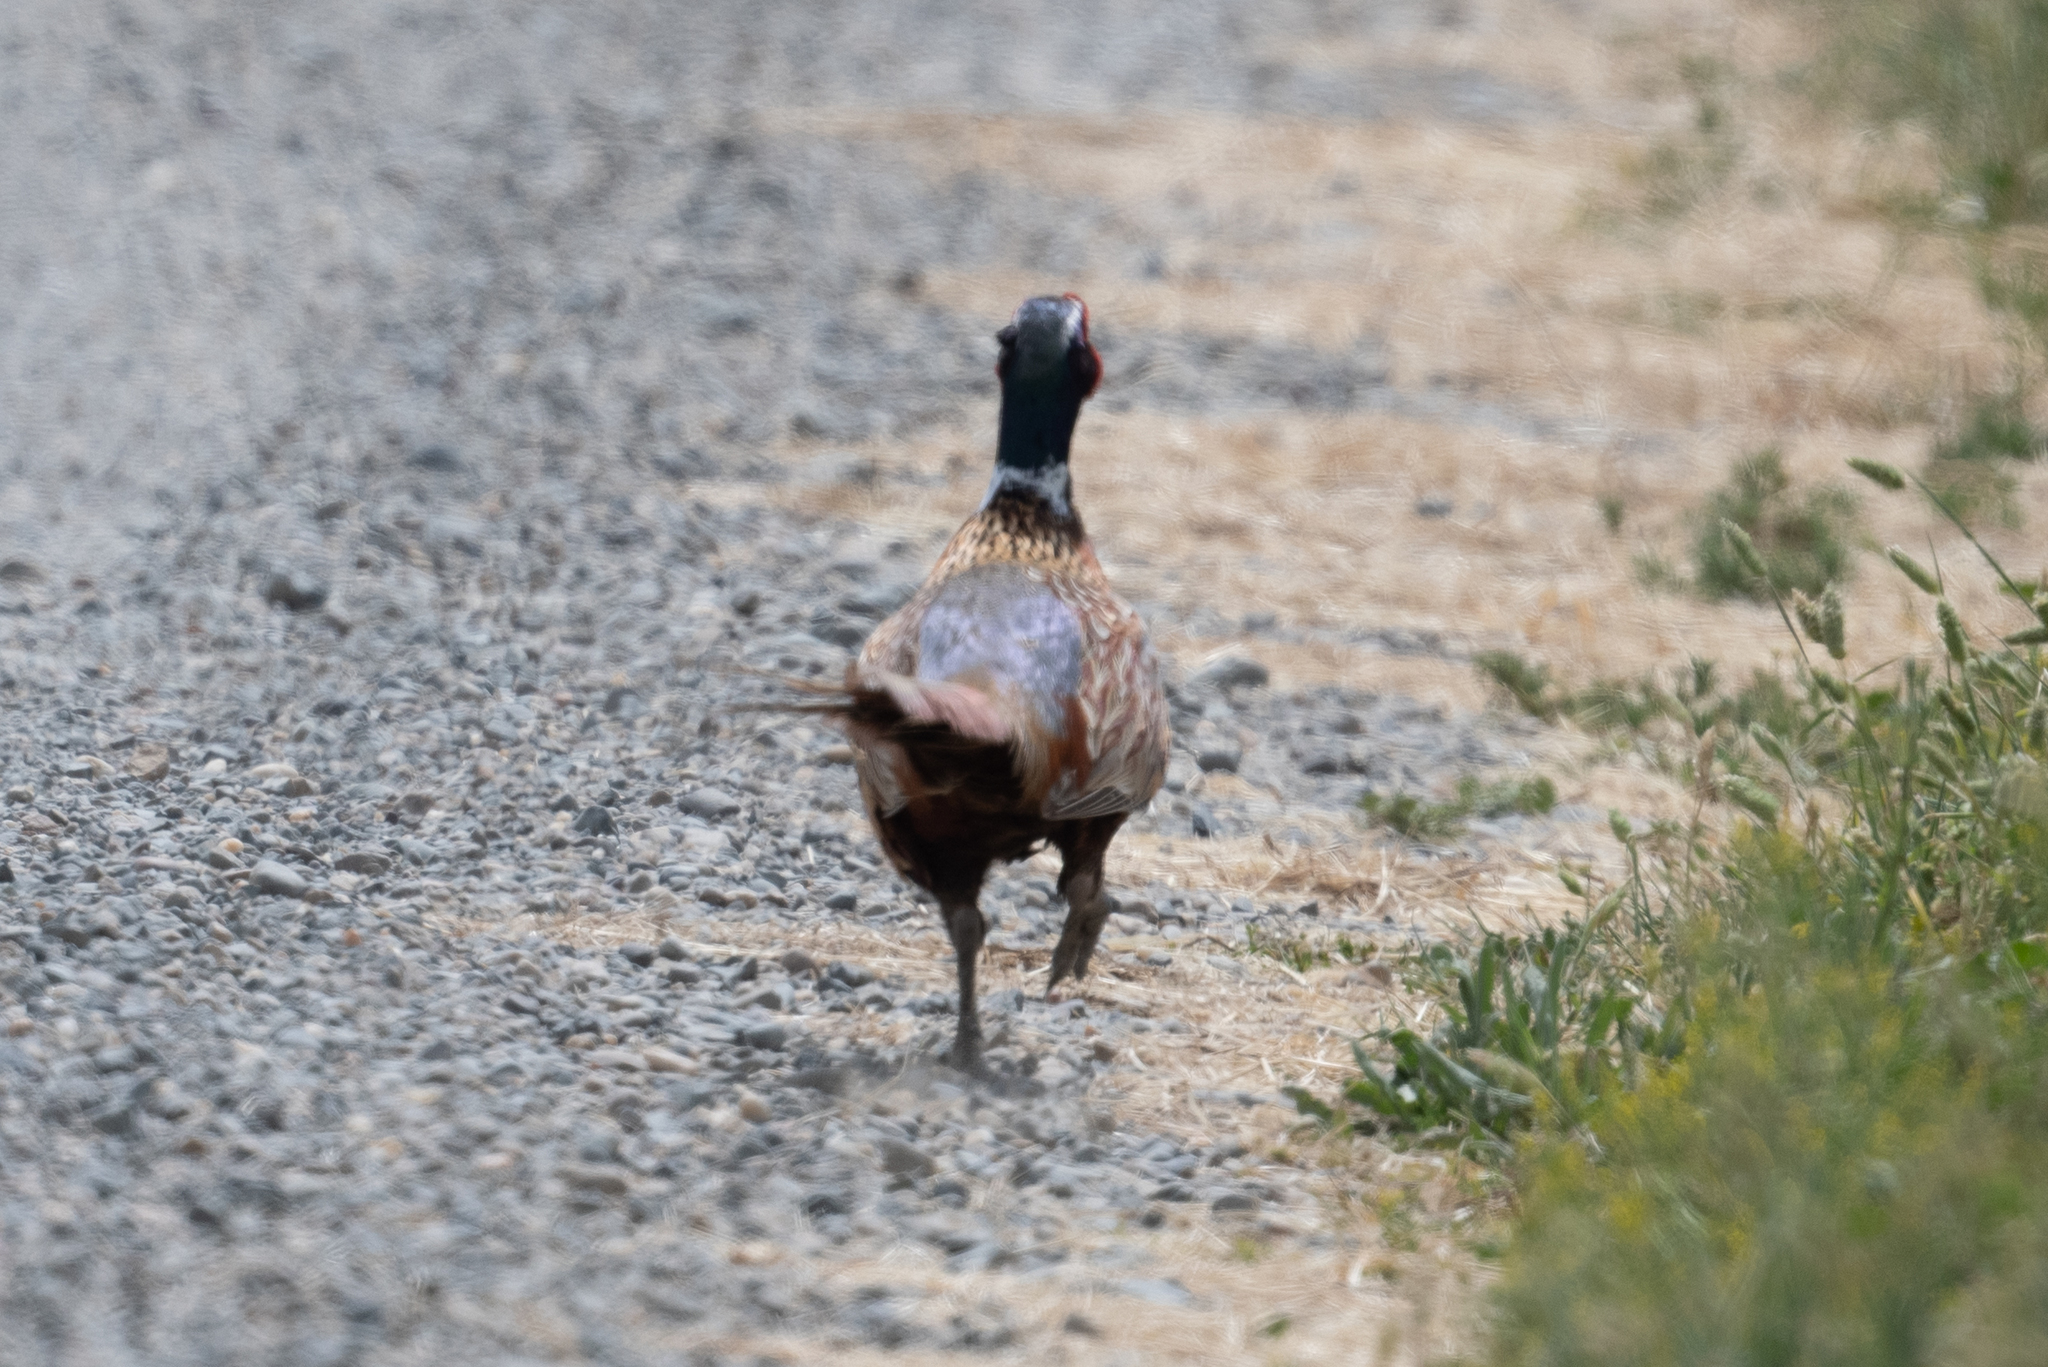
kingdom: Animalia
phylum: Chordata
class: Aves
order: Galliformes
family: Phasianidae
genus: Phasianus
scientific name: Phasianus colchicus
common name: Common pheasant
